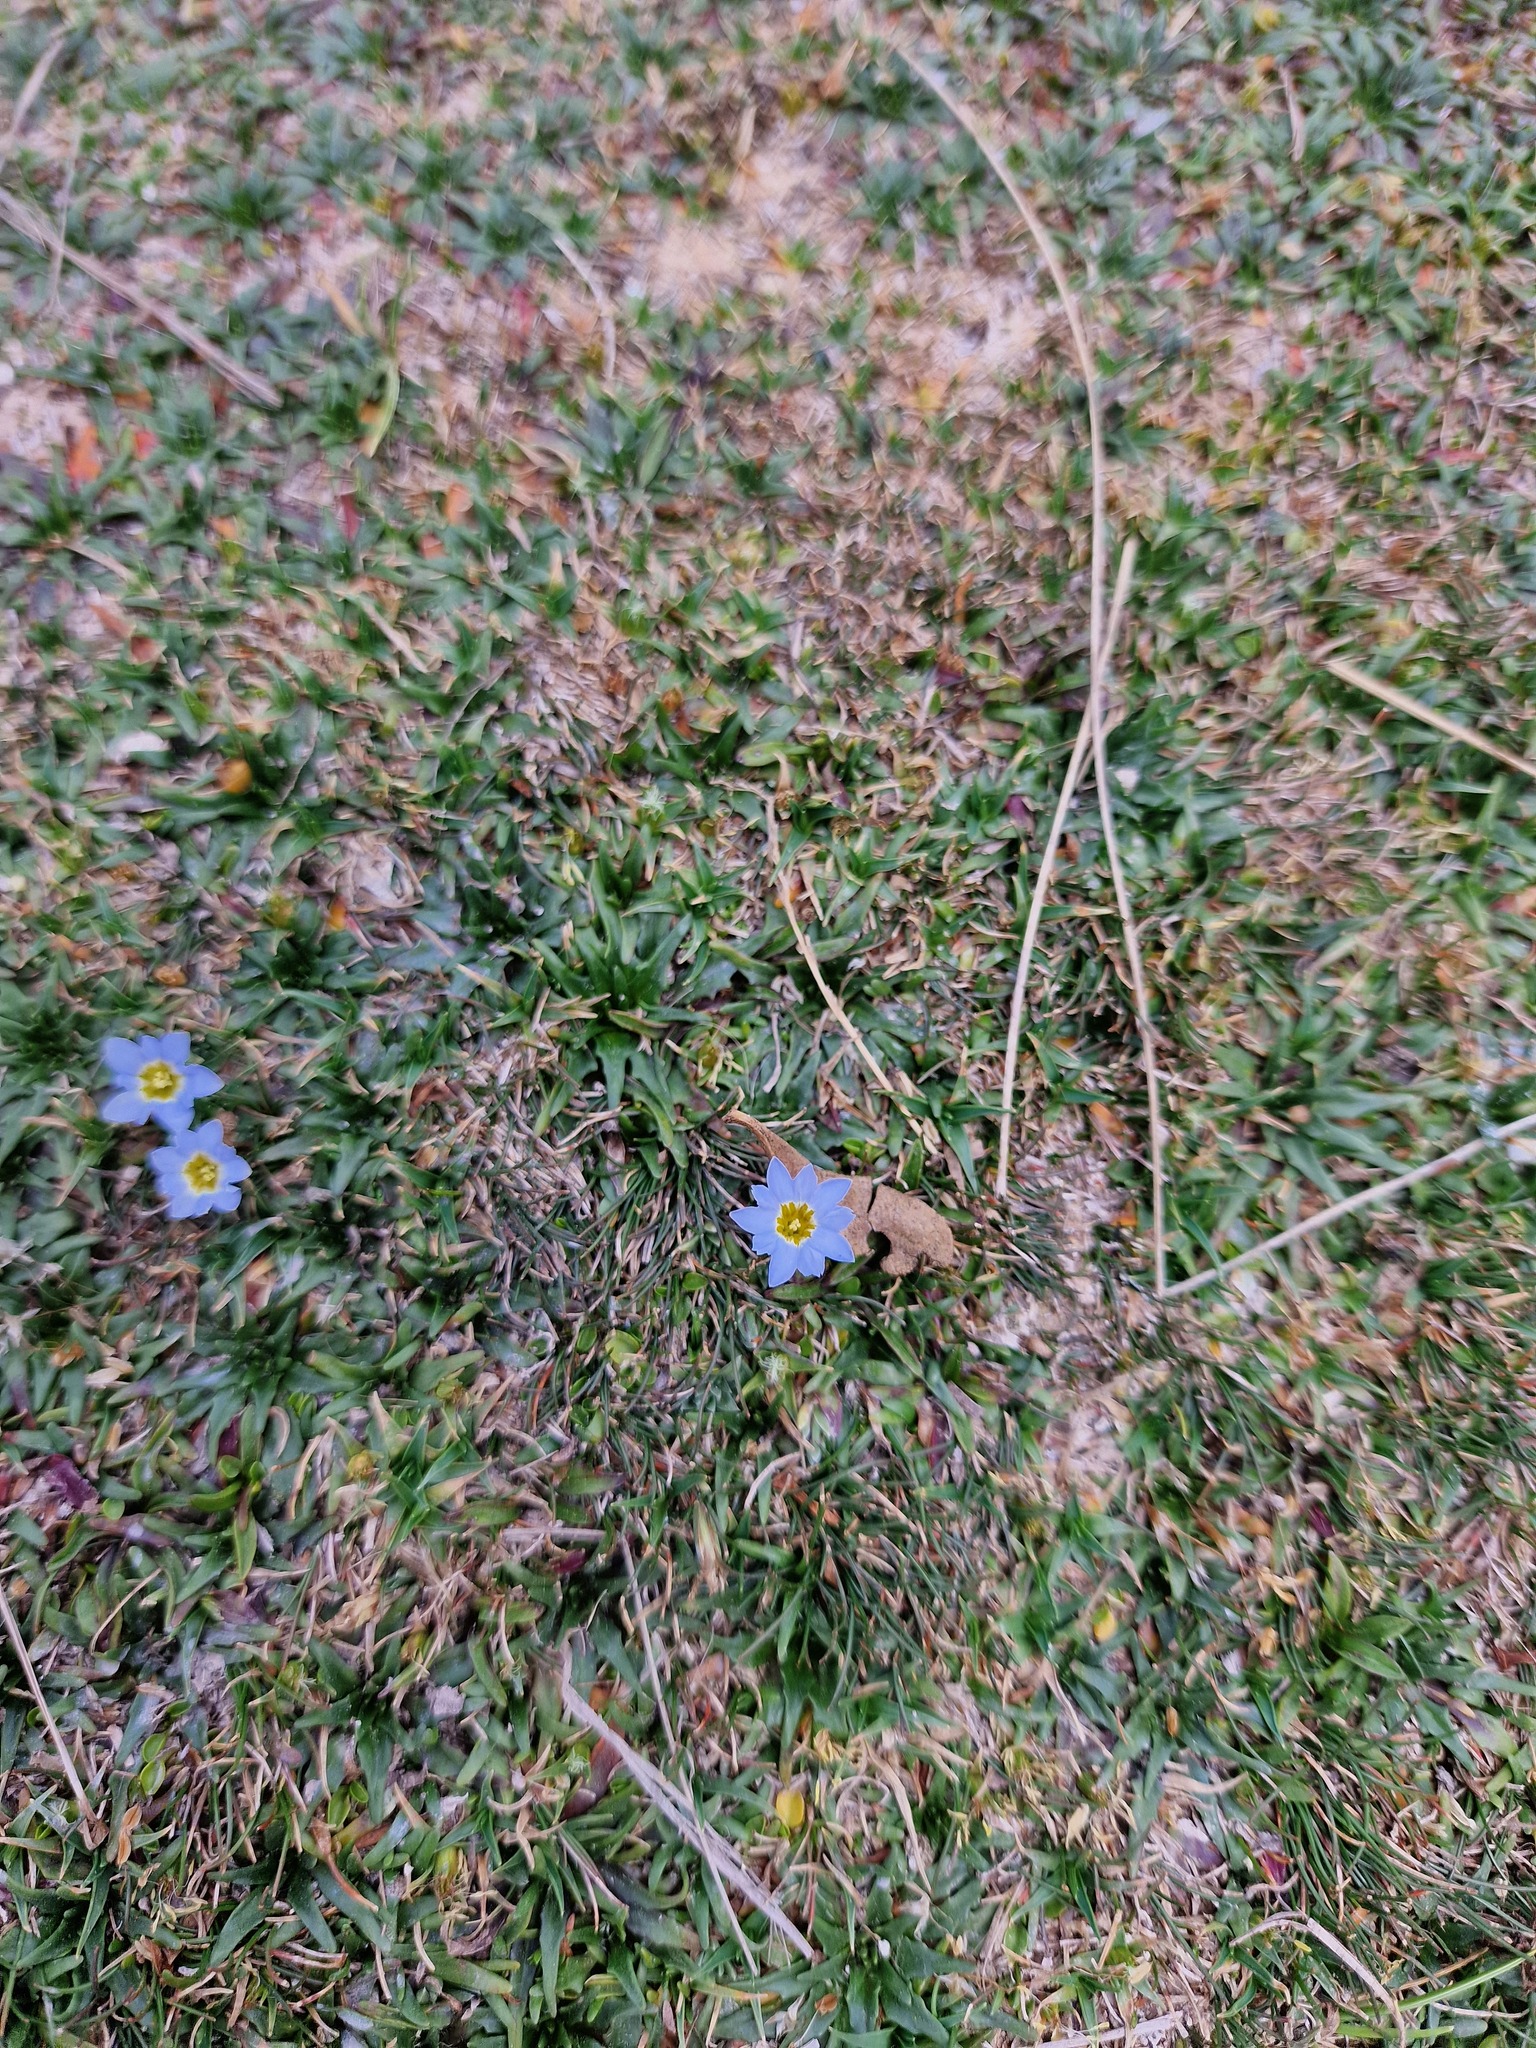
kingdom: Plantae
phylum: Tracheophyta
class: Magnoliopsida
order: Gentianales
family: Gentianaceae
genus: Gentiana
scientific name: Gentiana sedifolia
